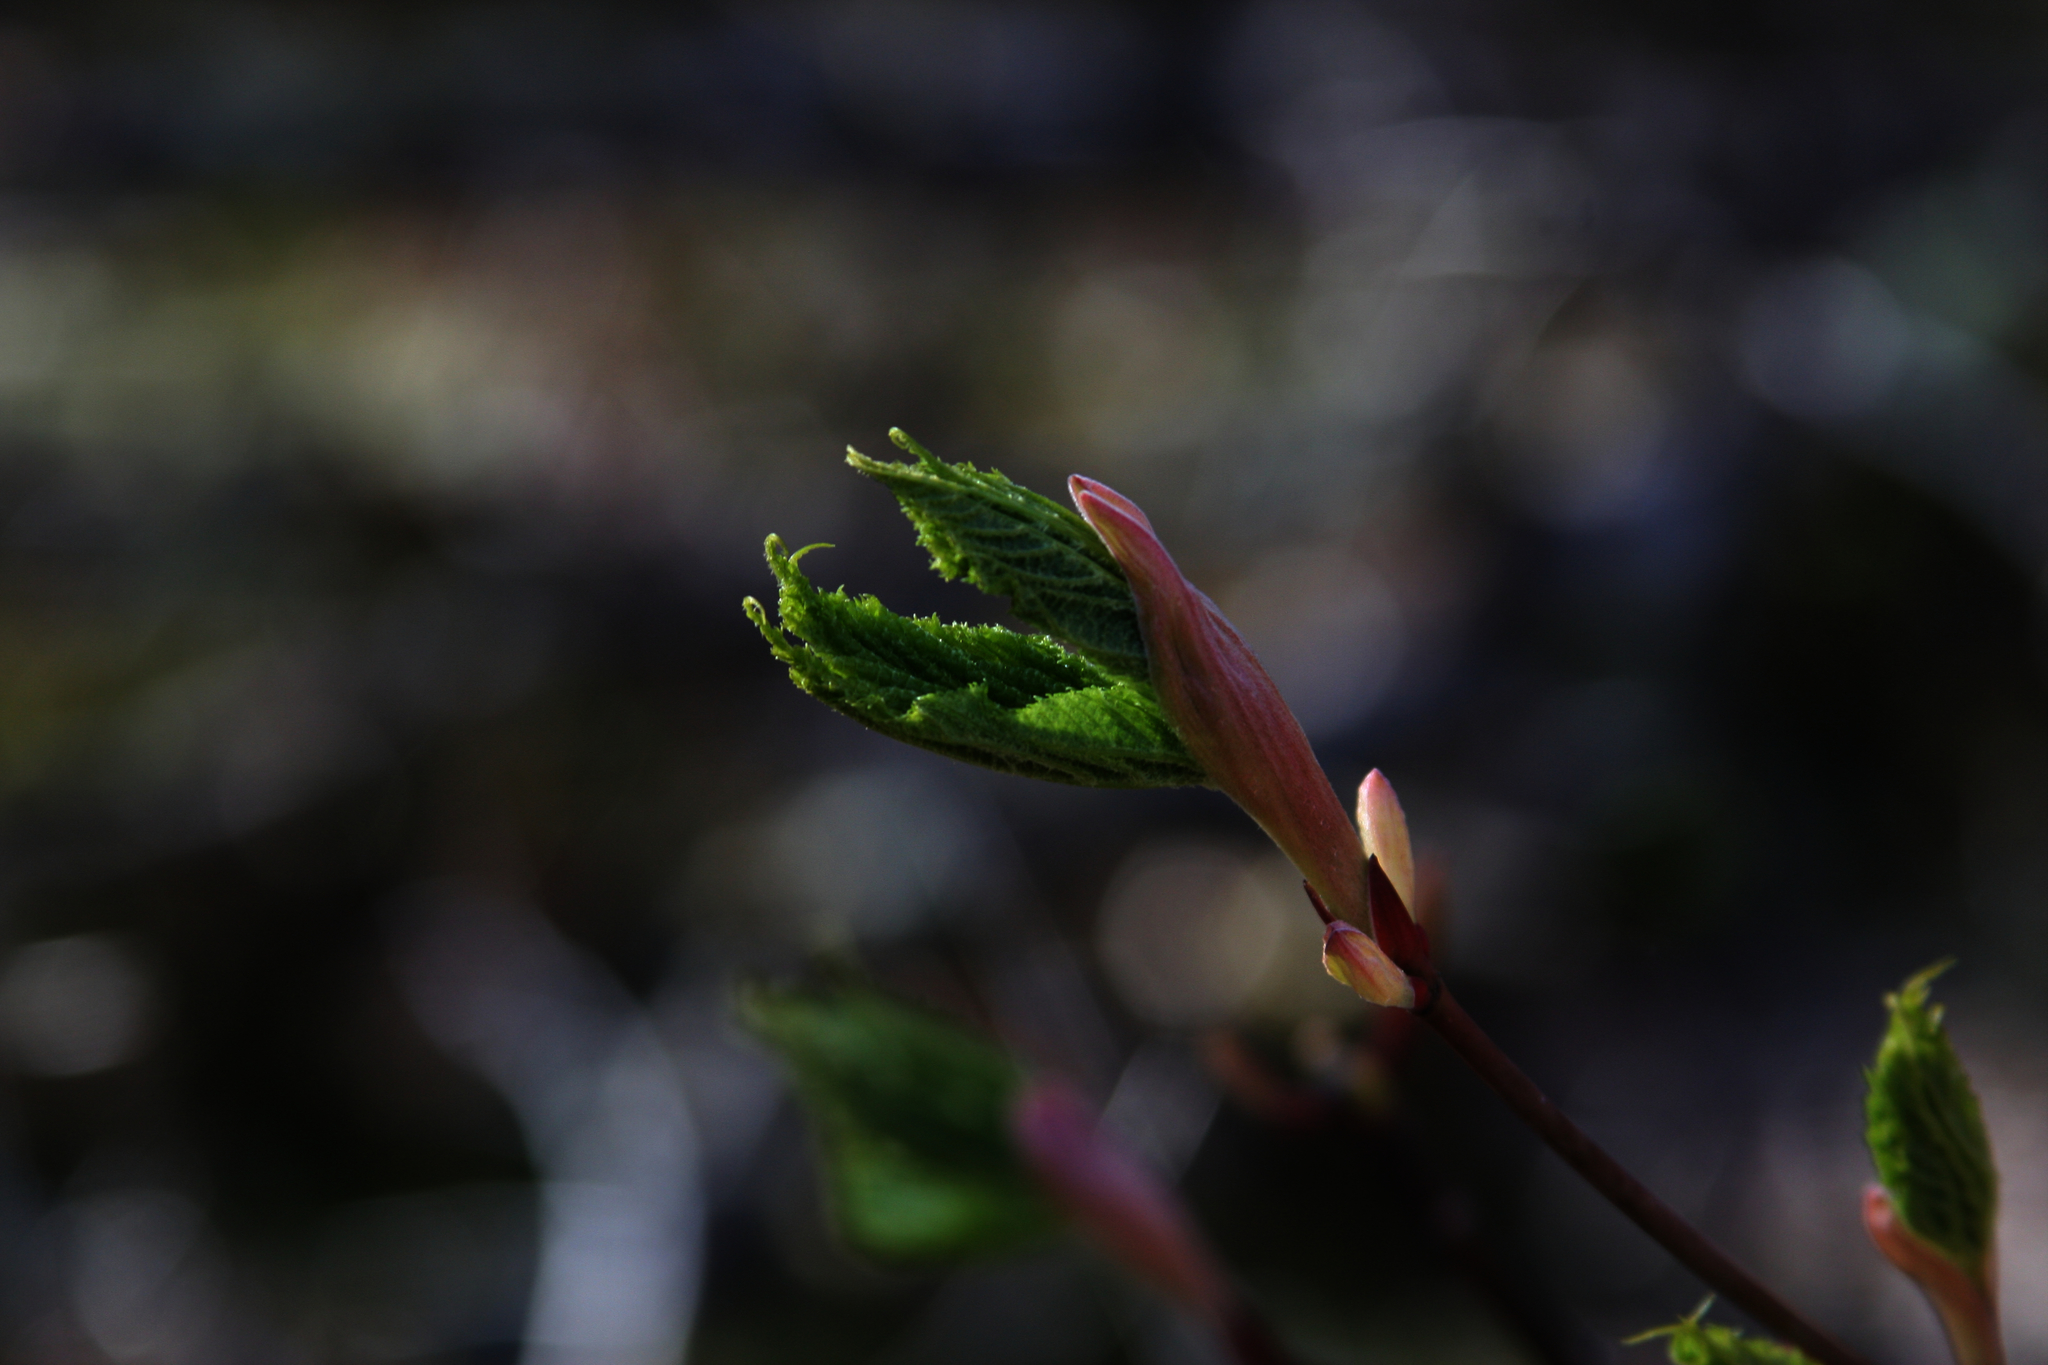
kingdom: Plantae
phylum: Tracheophyta
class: Magnoliopsida
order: Sapindales
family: Sapindaceae
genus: Acer
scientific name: Acer pensylvanicum
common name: Moosewood
